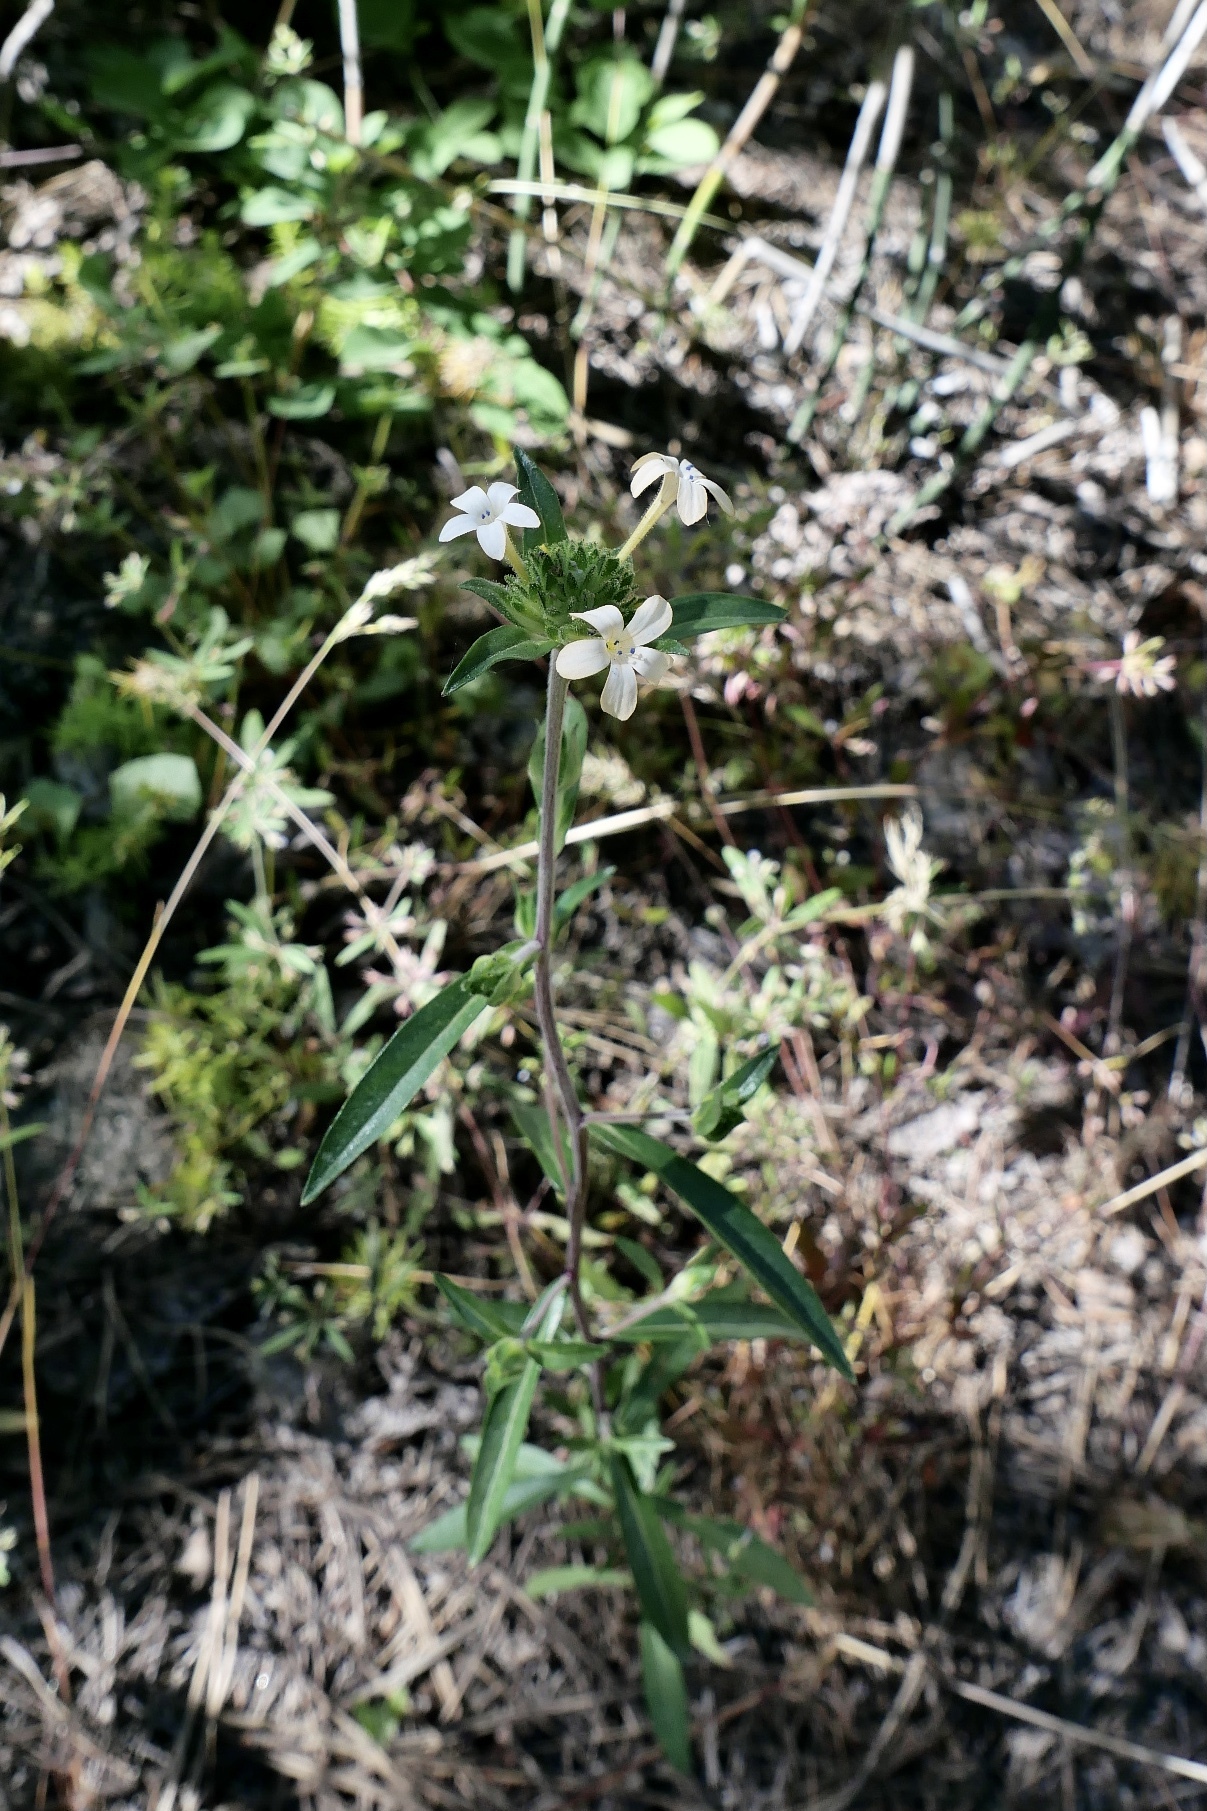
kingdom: Plantae
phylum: Tracheophyta
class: Magnoliopsida
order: Ericales
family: Polemoniaceae
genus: Collomia
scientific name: Collomia grandiflora
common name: California strawflower
